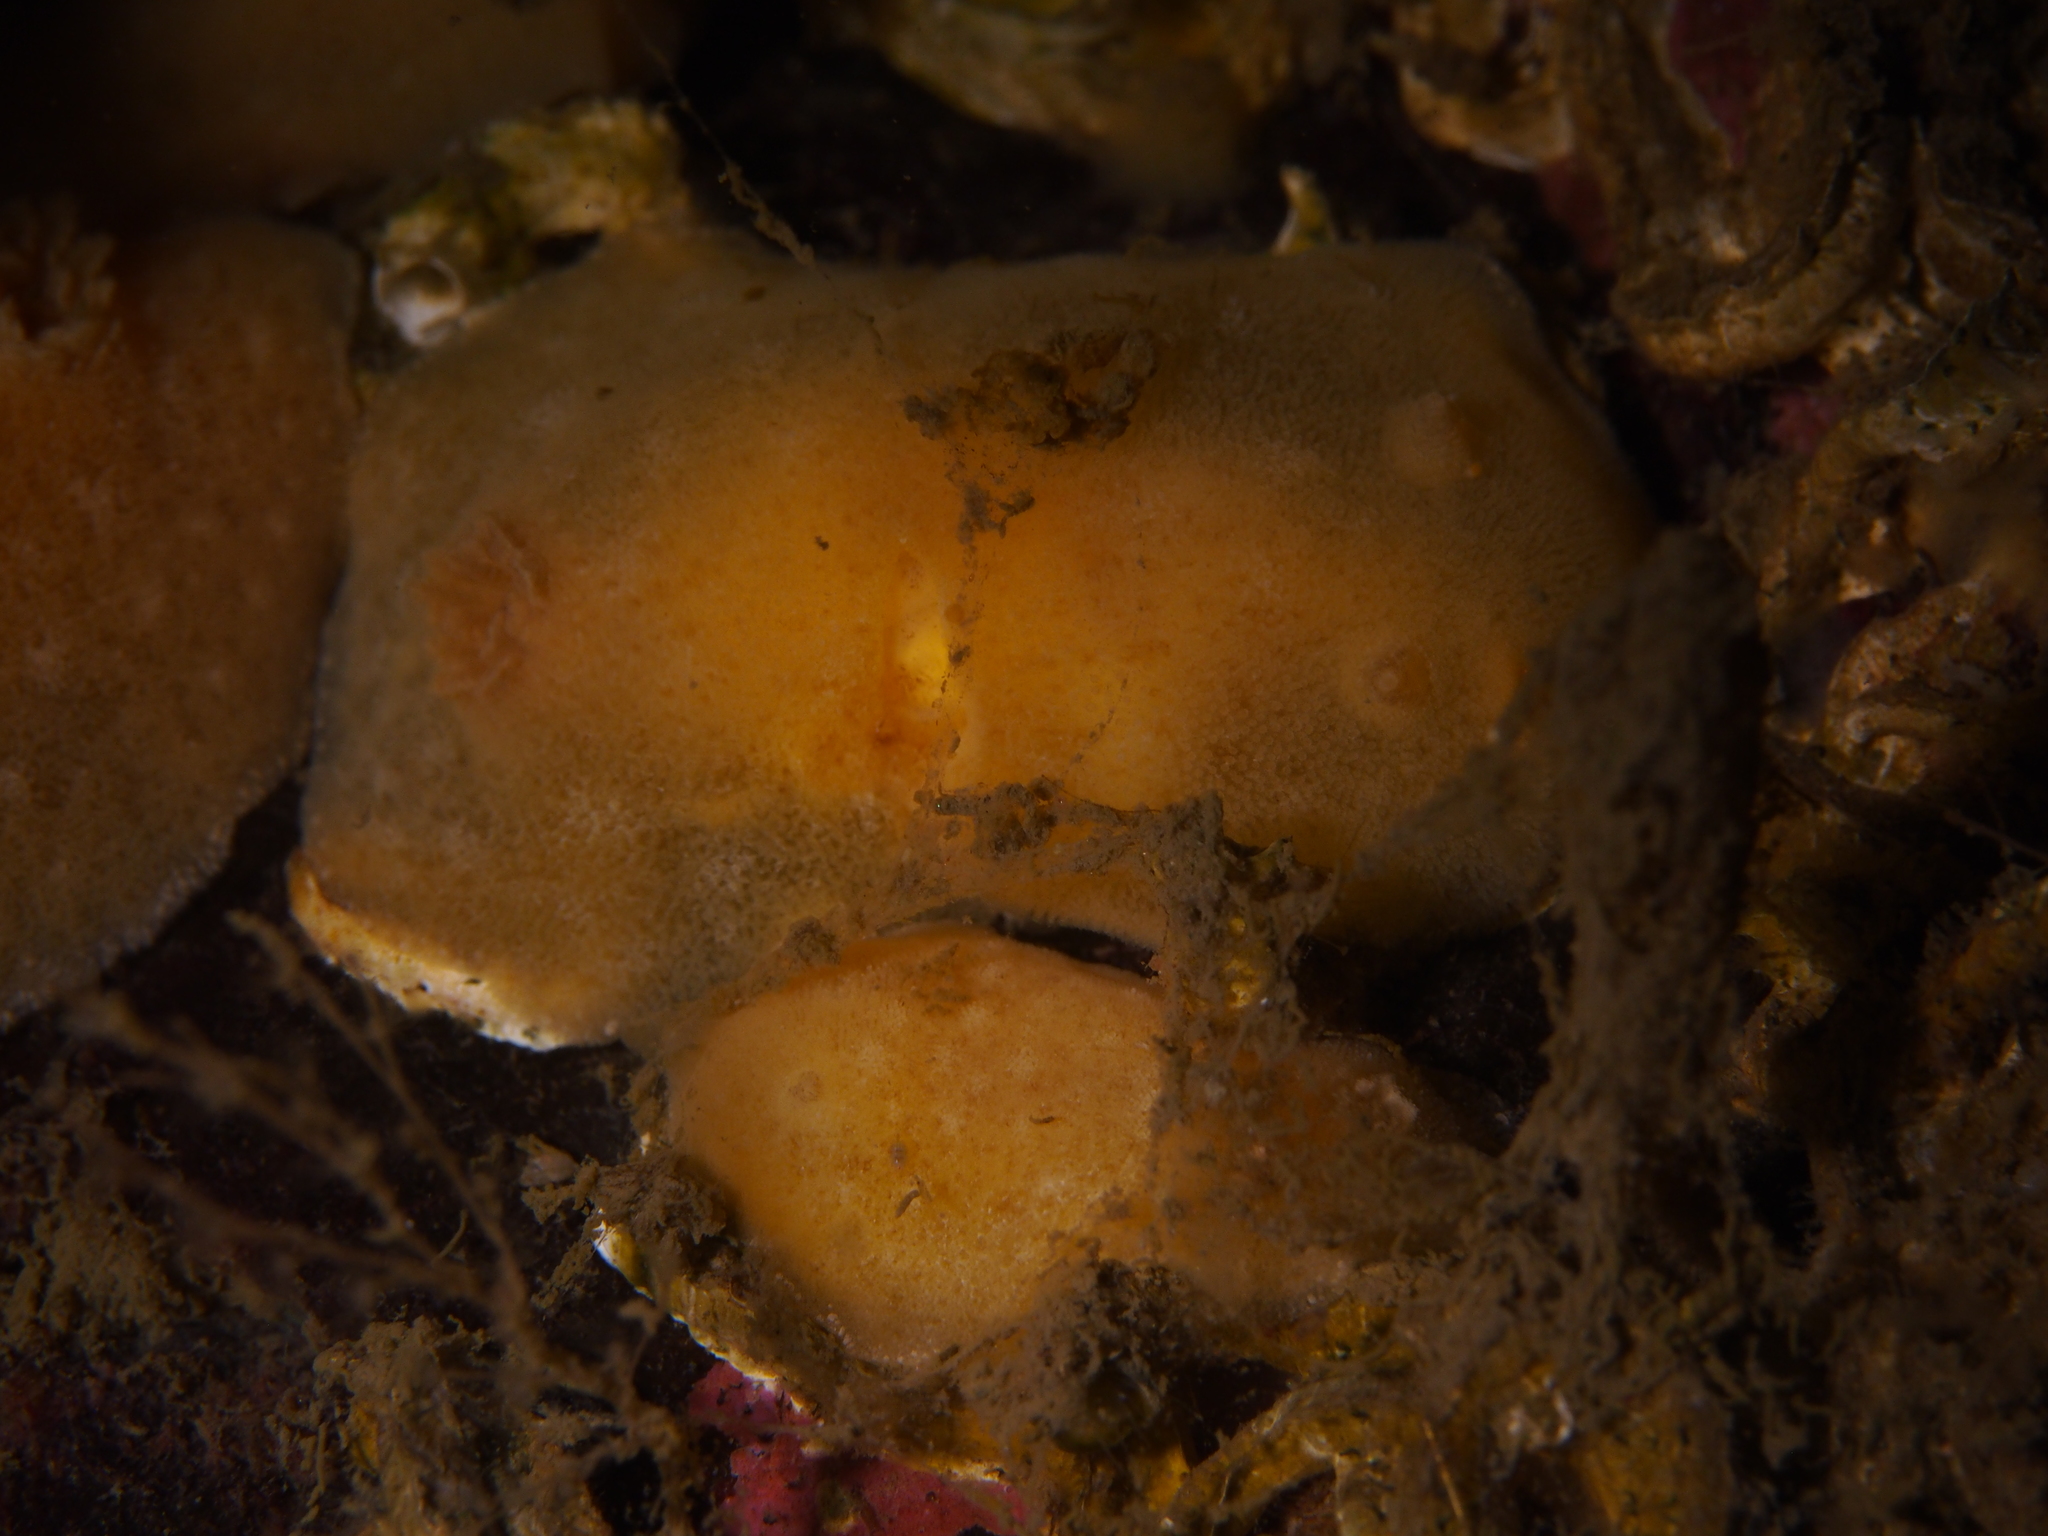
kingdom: Animalia
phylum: Mollusca
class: Gastropoda
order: Nudibranchia
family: Discodorididae
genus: Jorunna
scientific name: Jorunna tomentosa
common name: Grey sea slug
